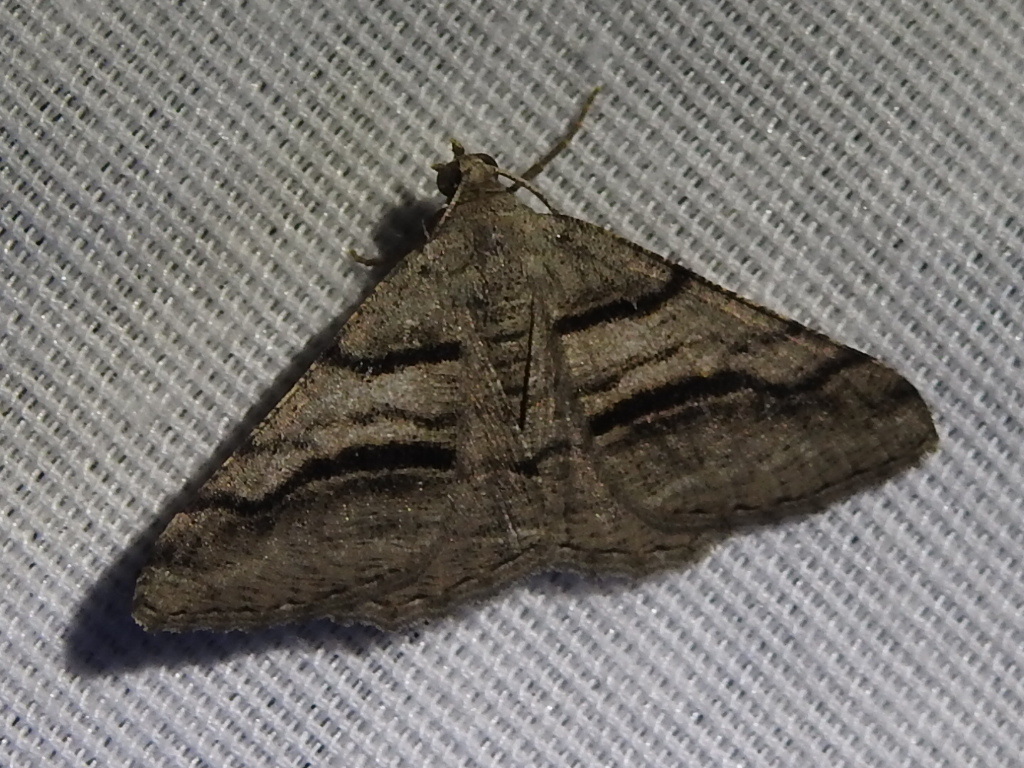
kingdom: Animalia
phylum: Arthropoda
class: Insecta
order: Lepidoptera
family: Geometridae
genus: Digrammia
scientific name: Digrammia continuata
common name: Curve-lined angle
